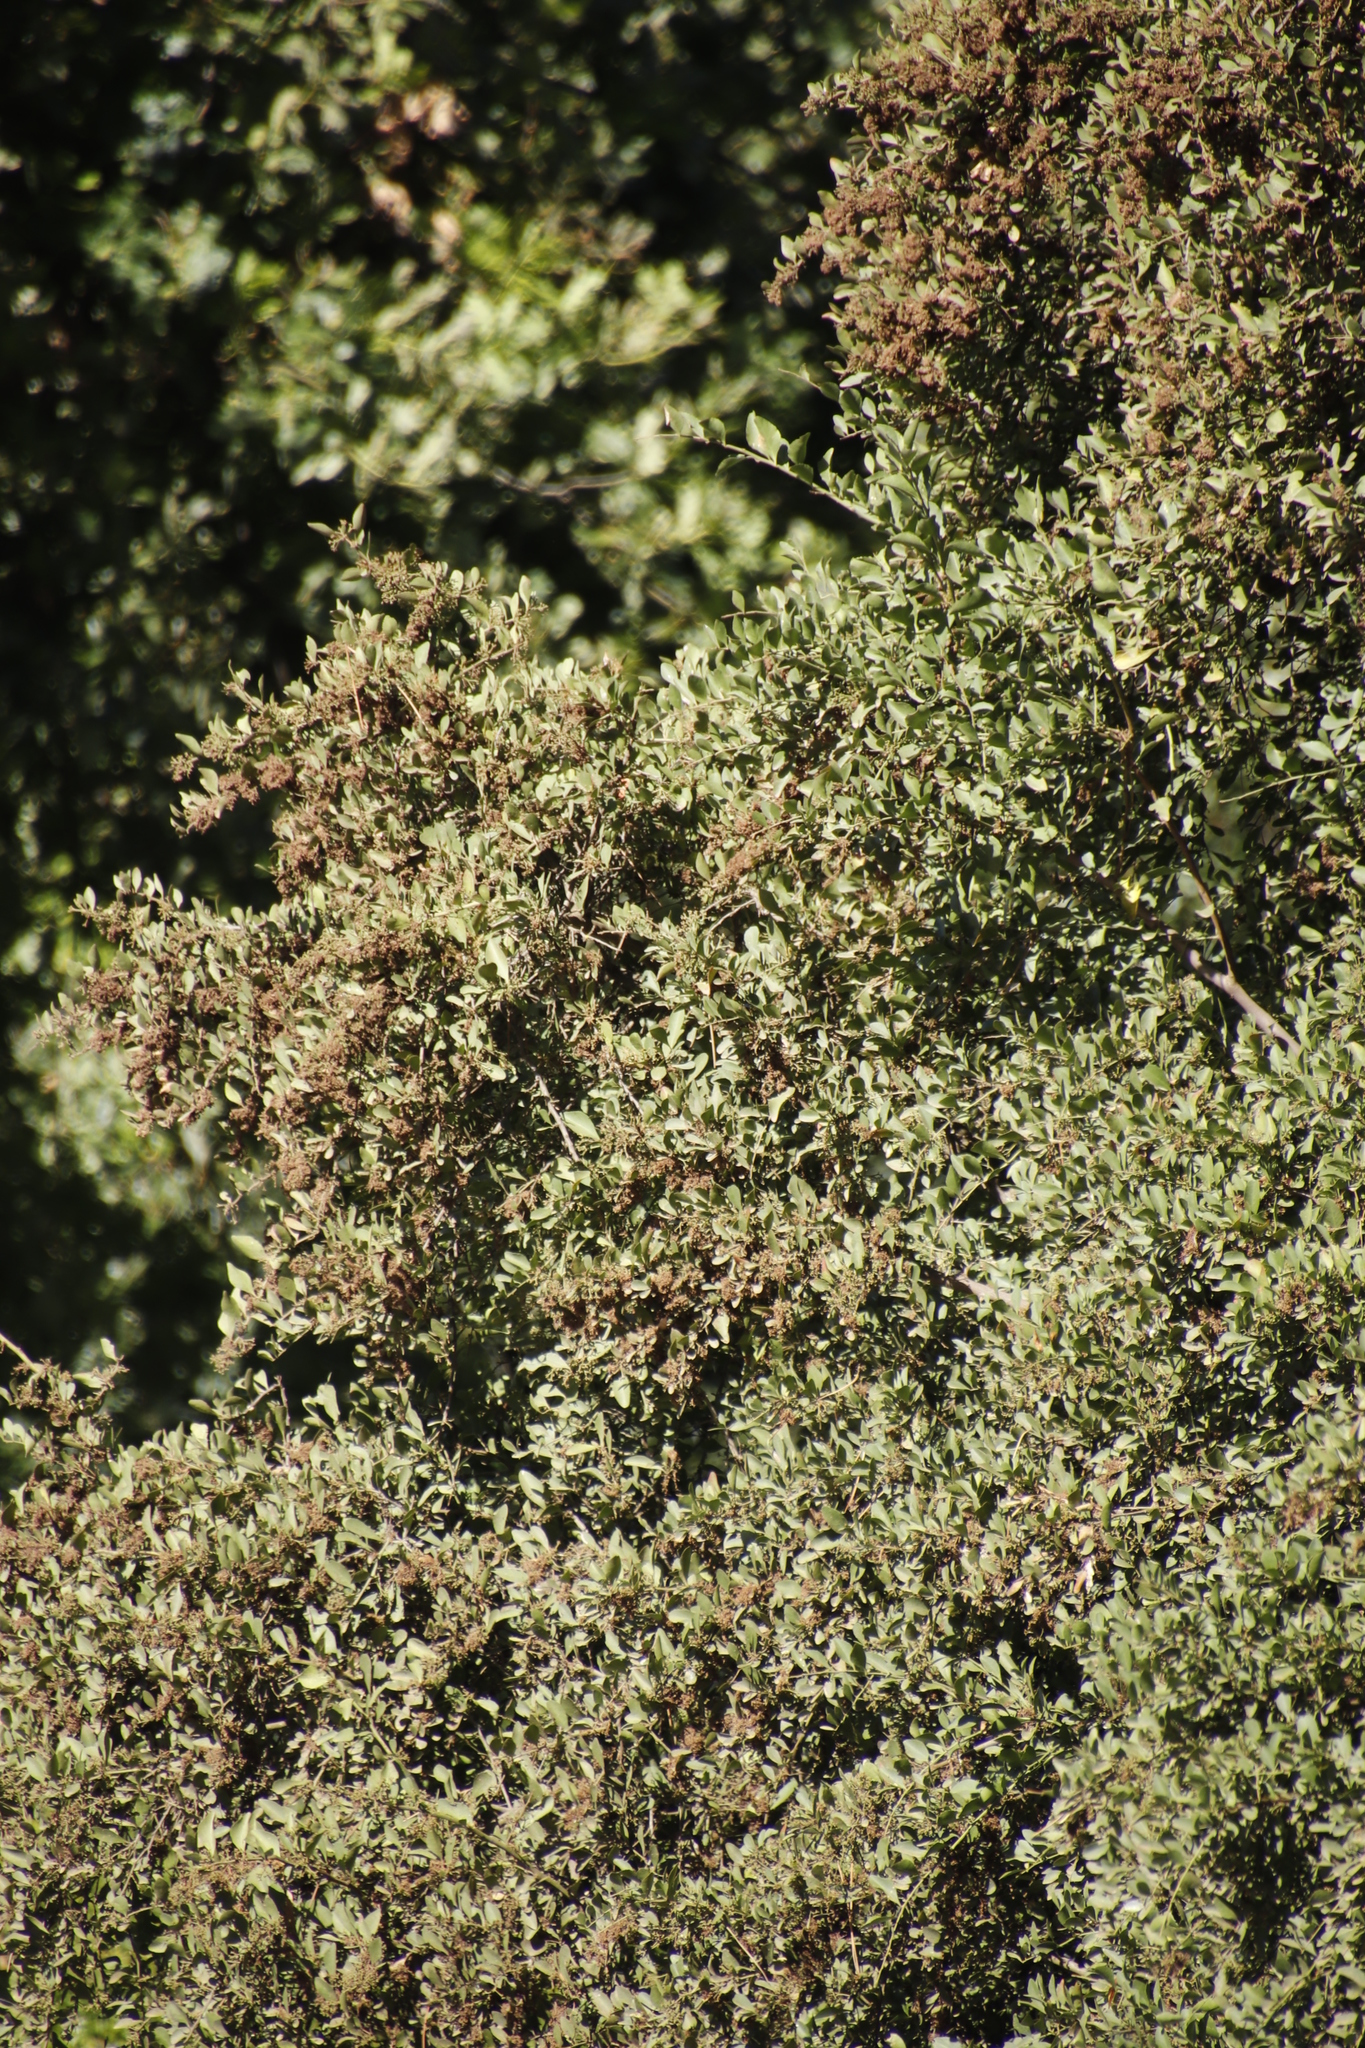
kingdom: Plantae
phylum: Tracheophyta
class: Magnoliopsida
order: Celastrales
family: Celastraceae
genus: Gymnosporia
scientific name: Gymnosporia buxifolia
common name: Common spike-thorn
